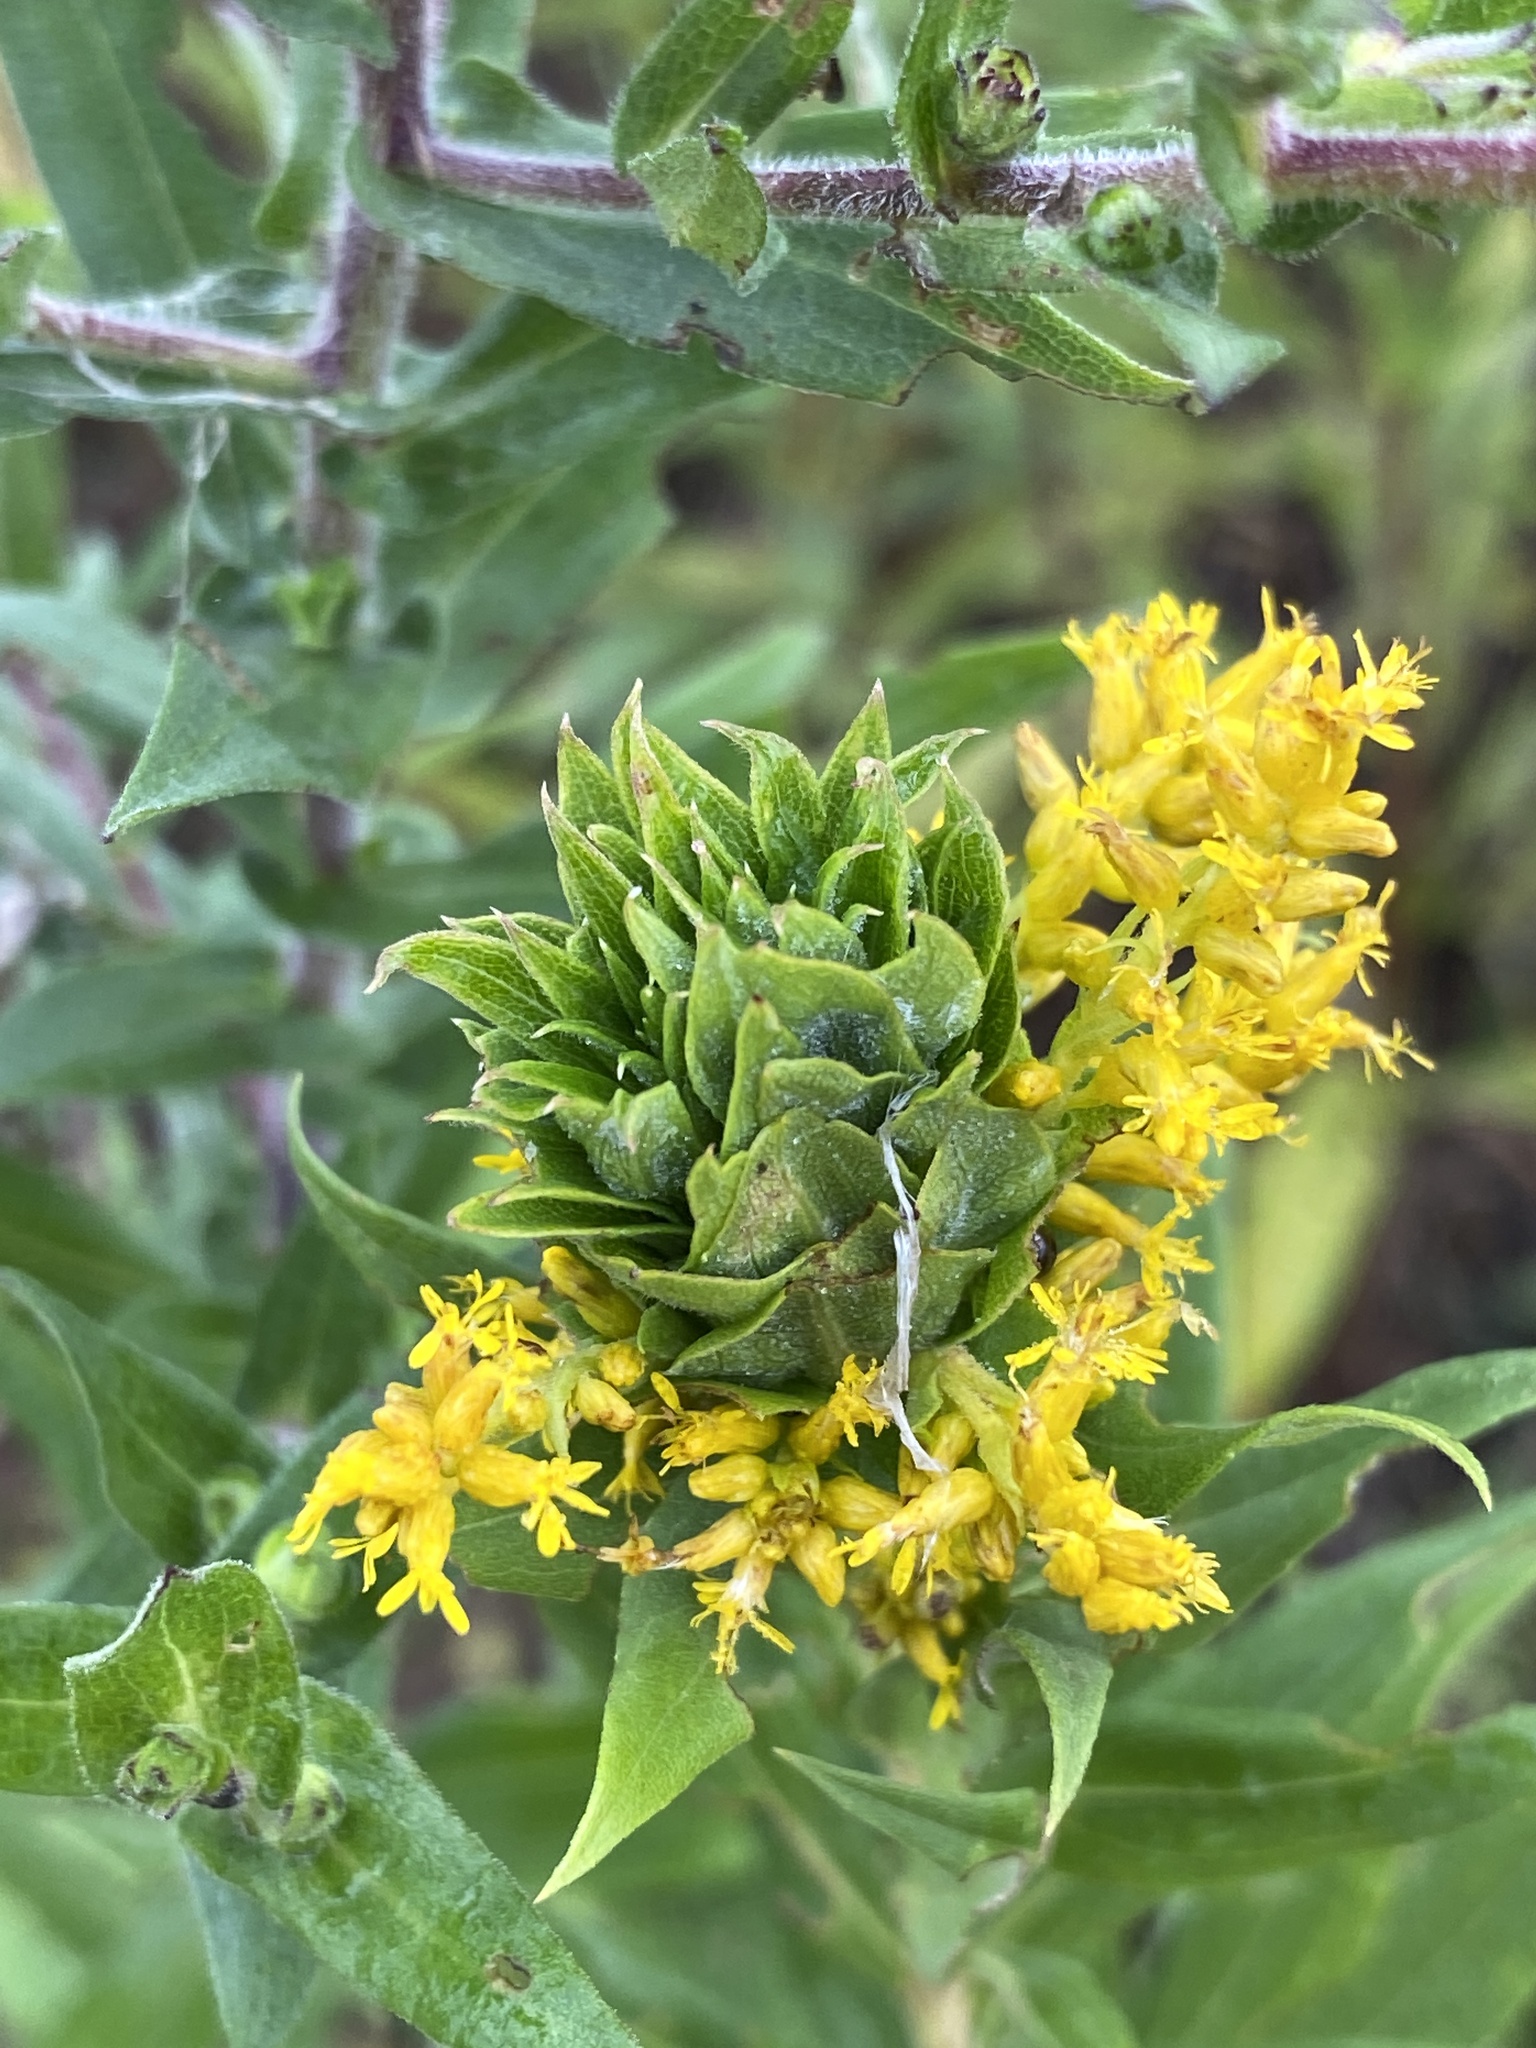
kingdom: Animalia
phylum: Arthropoda
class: Insecta
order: Diptera
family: Cecidomyiidae
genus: Rhopalomyia
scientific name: Rhopalomyia solidaginis
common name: Goldenrod bunch gall midge
